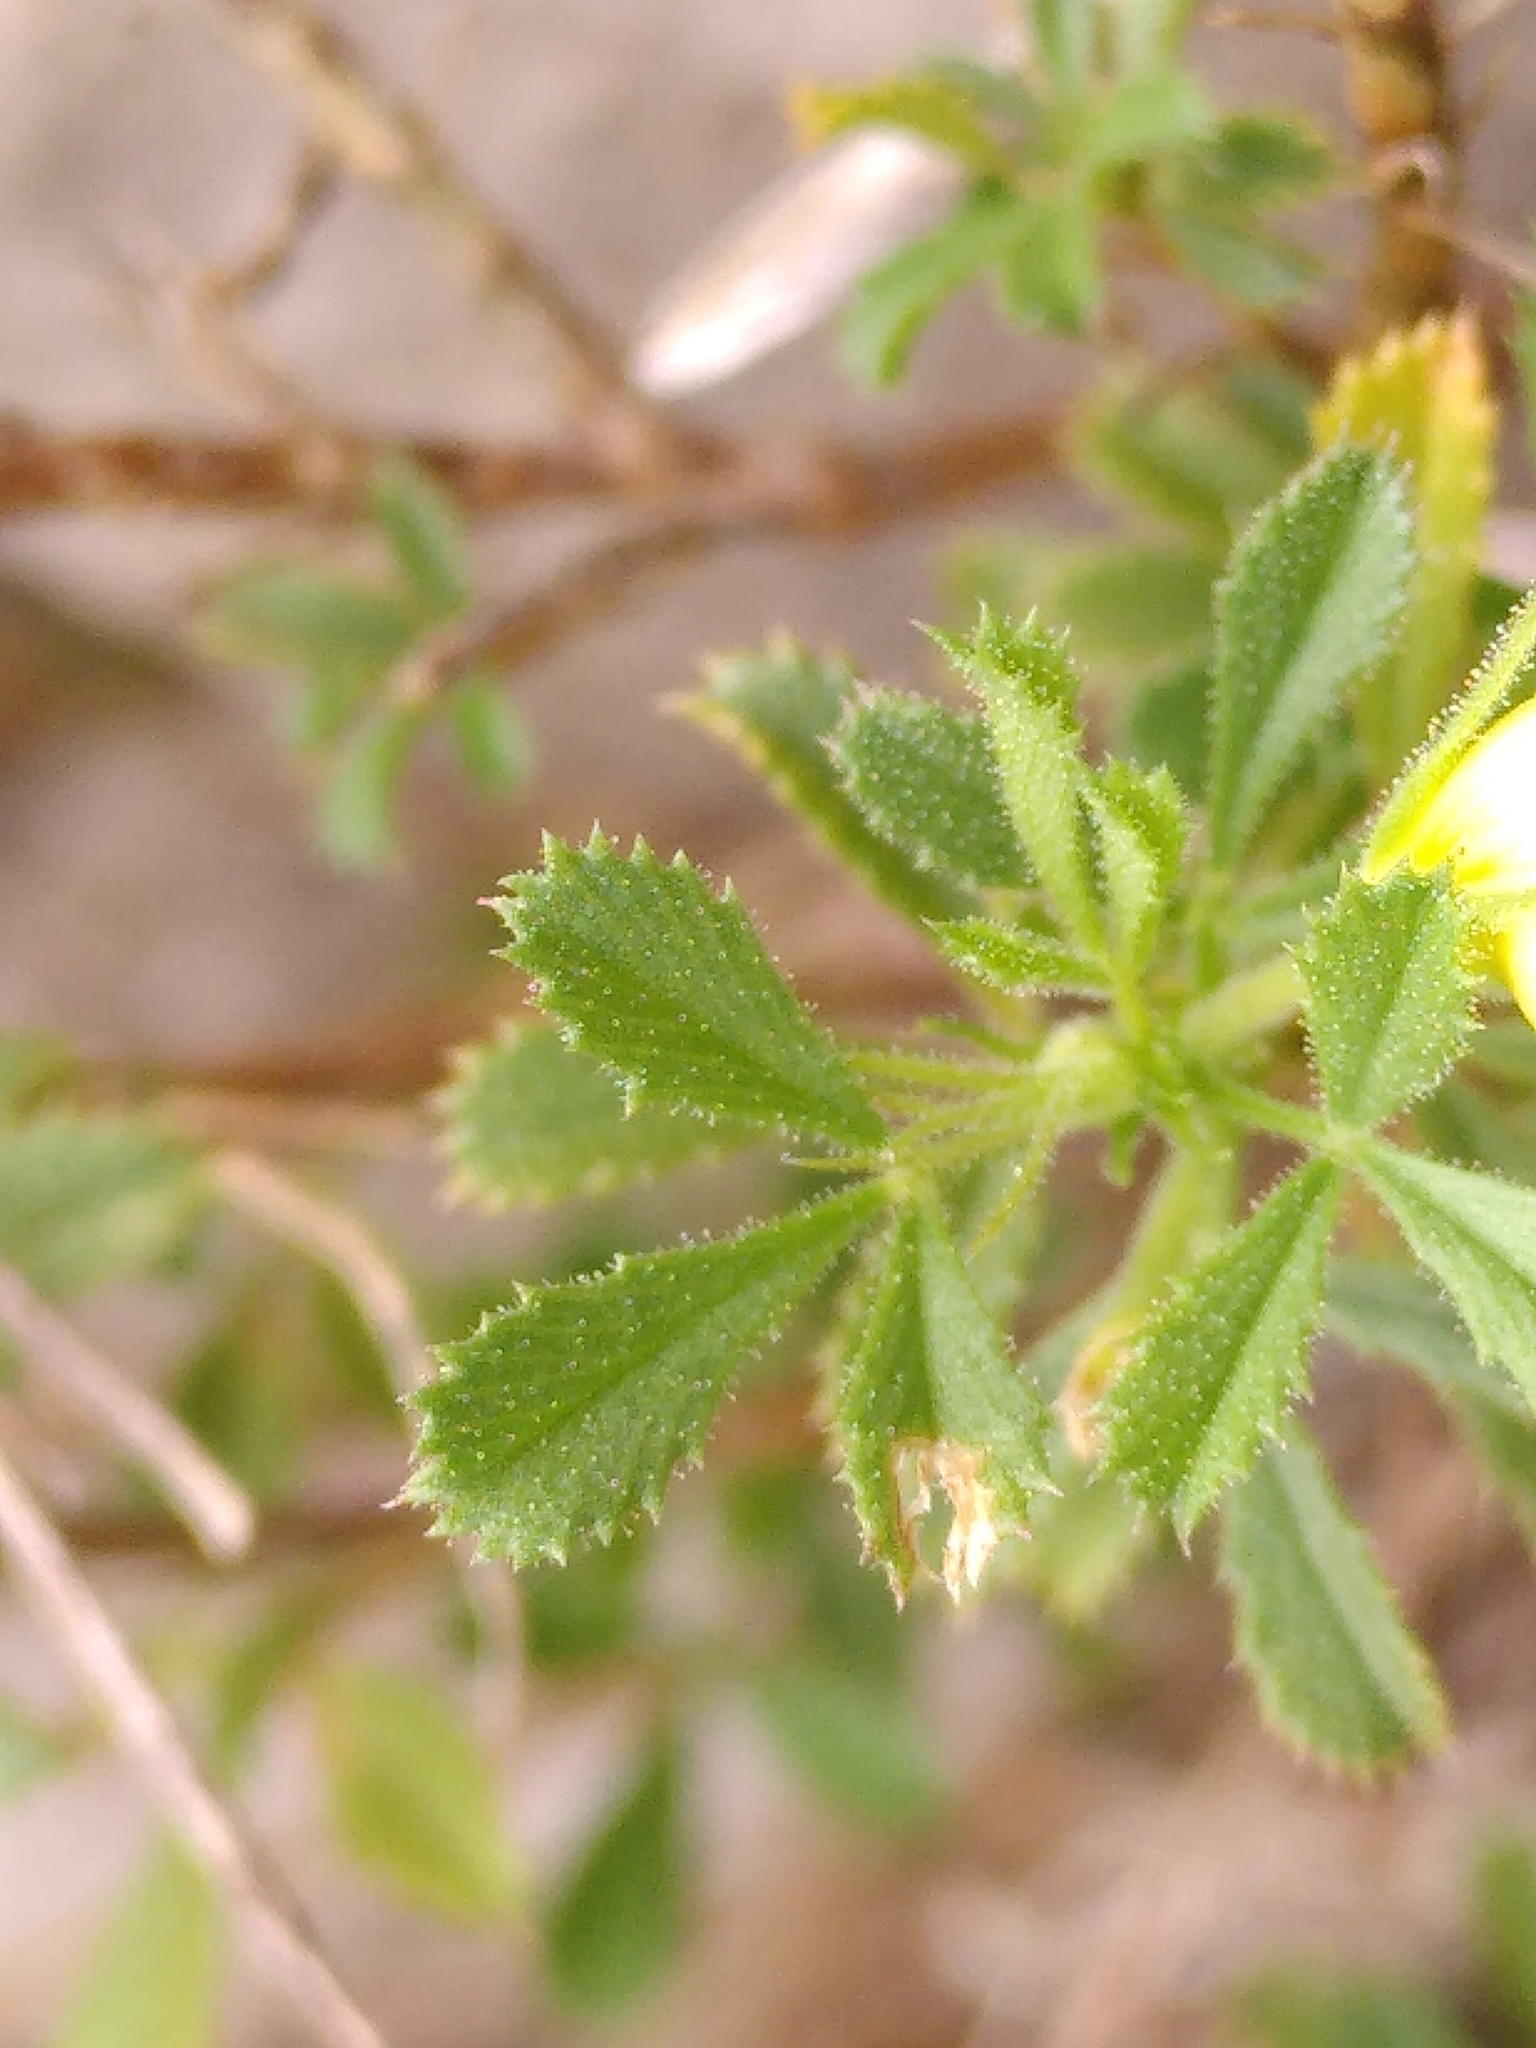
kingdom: Plantae
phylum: Tracheophyta
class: Magnoliopsida
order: Fabales
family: Fabaceae
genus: Ononis
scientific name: Ononis minutissima
